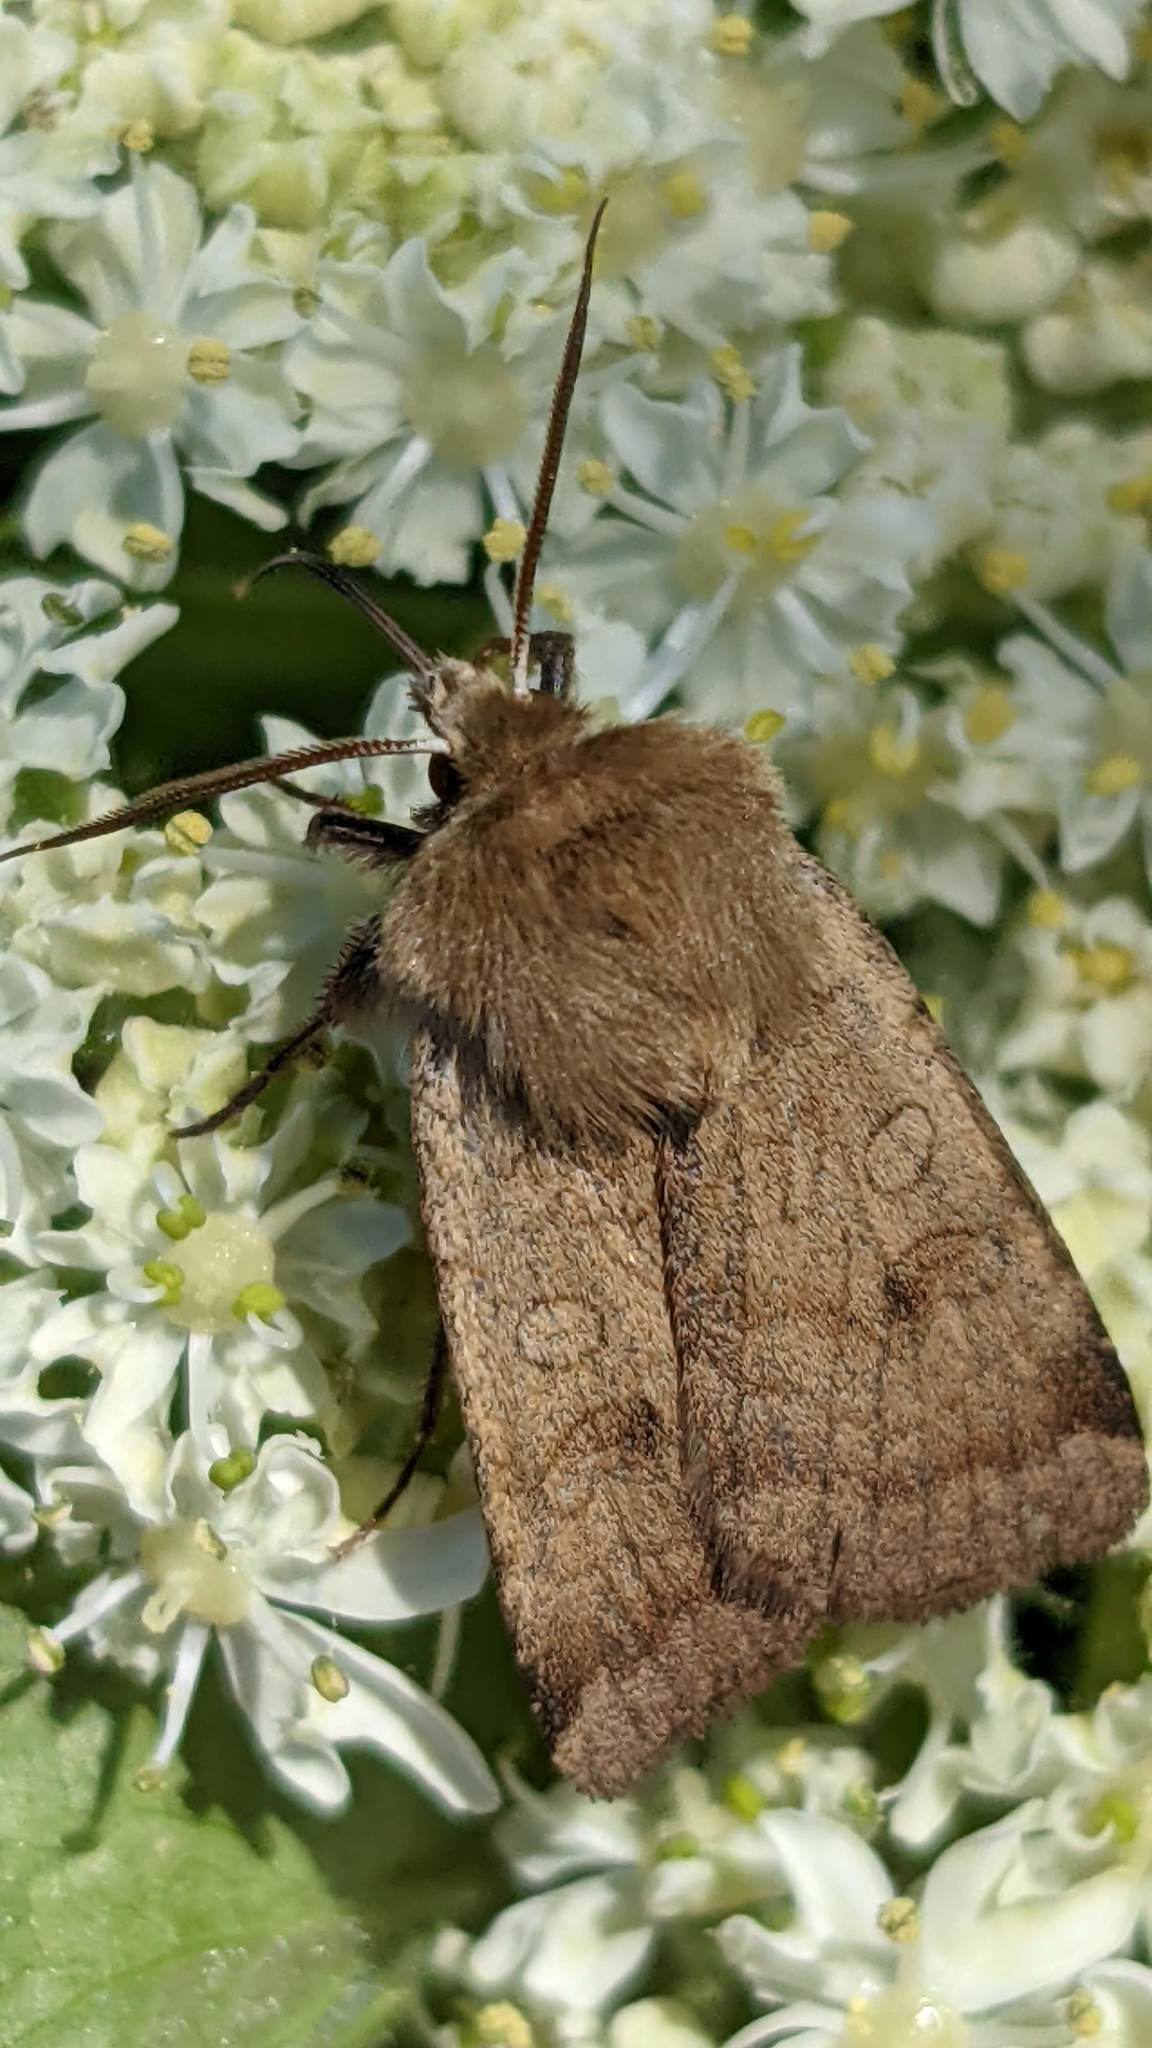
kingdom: Animalia
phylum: Arthropoda
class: Insecta
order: Lepidoptera
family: Noctuidae
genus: Paradiarsia
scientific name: Paradiarsia littoralis
